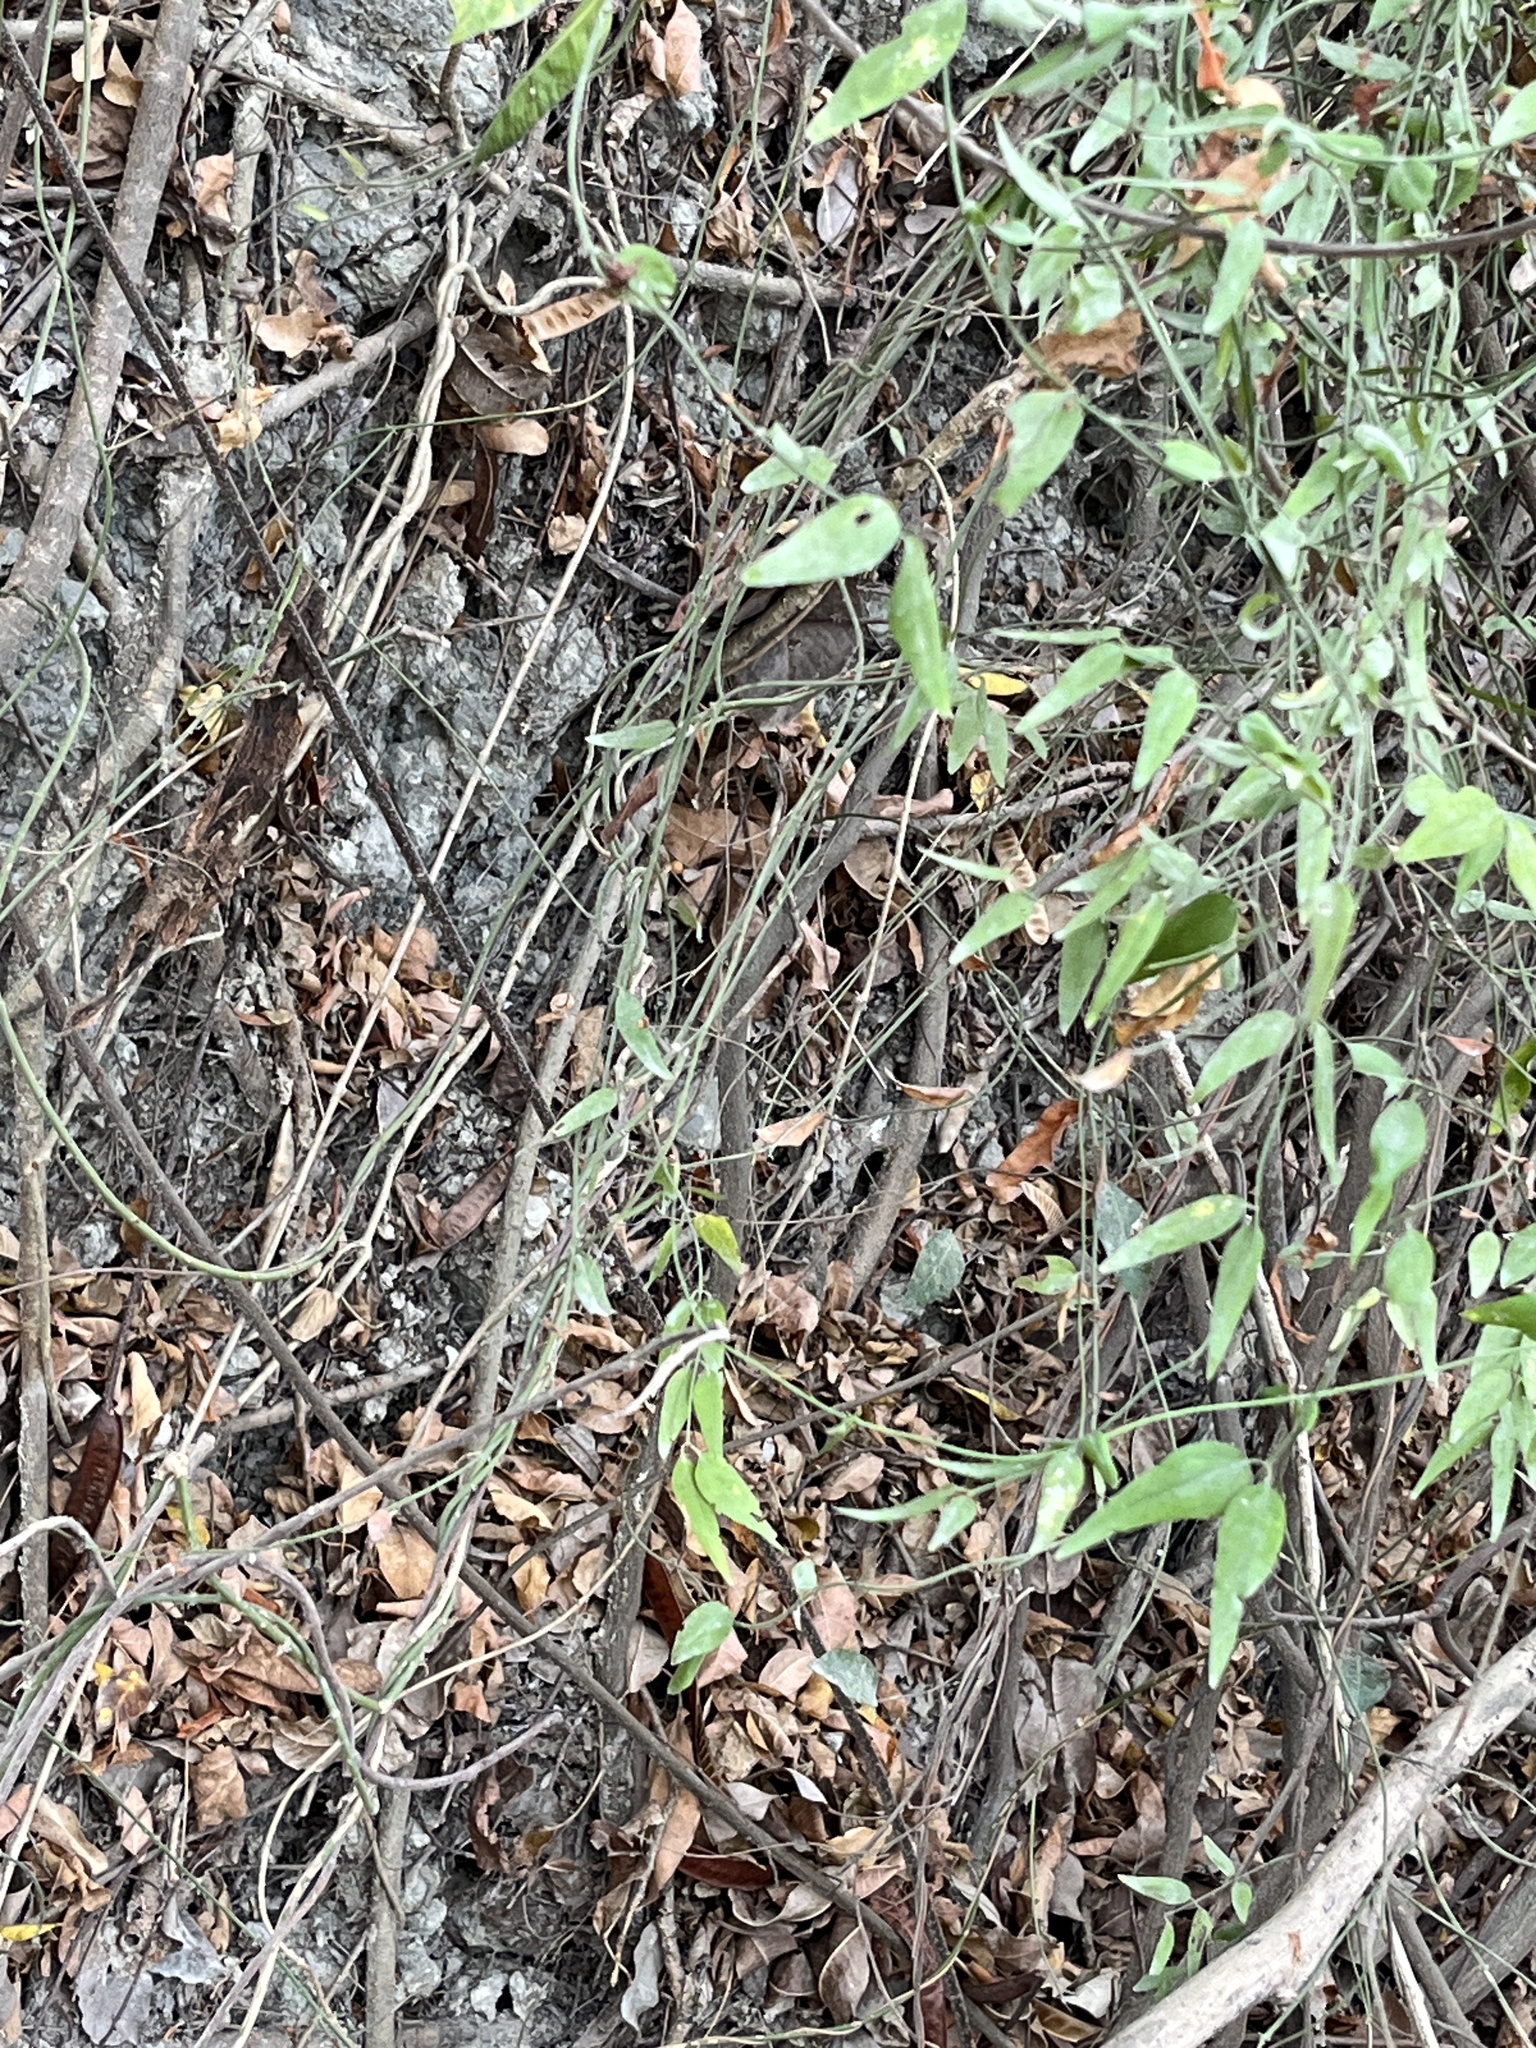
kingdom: Plantae
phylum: Tracheophyta
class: Magnoliopsida
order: Lamiales
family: Oleaceae
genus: Jasminum
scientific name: Jasminum nervosum
